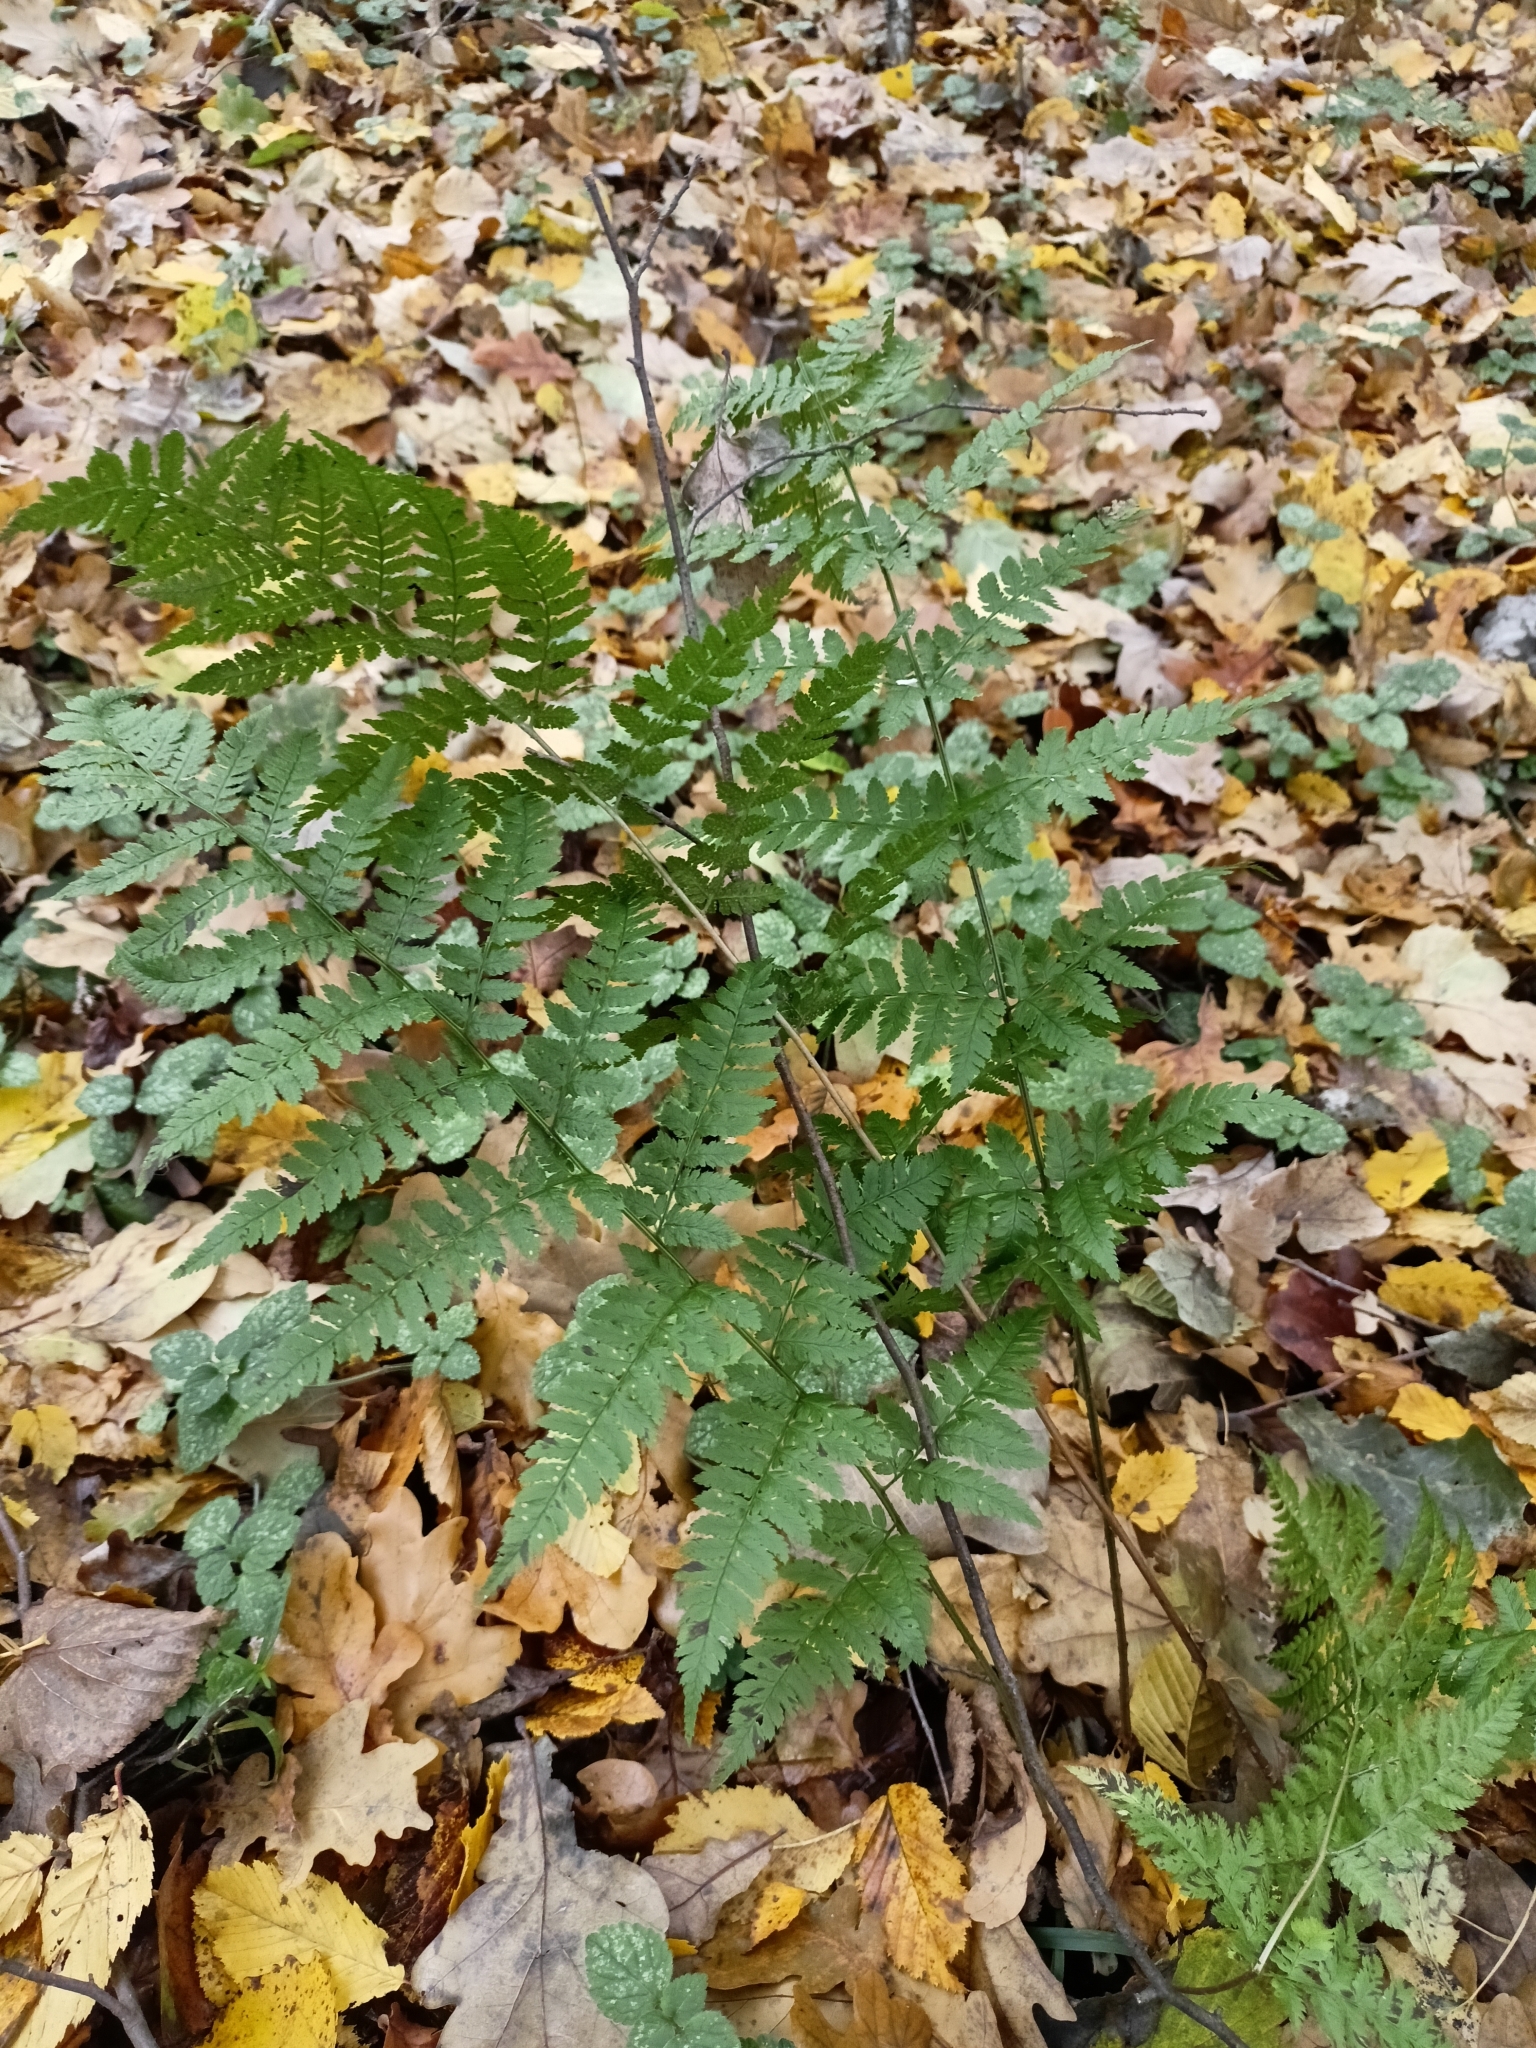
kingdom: Plantae
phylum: Tracheophyta
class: Polypodiopsida
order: Polypodiales
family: Dryopteridaceae
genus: Dryopteris
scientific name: Dryopteris carthusiana
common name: Narrow buckler-fern
